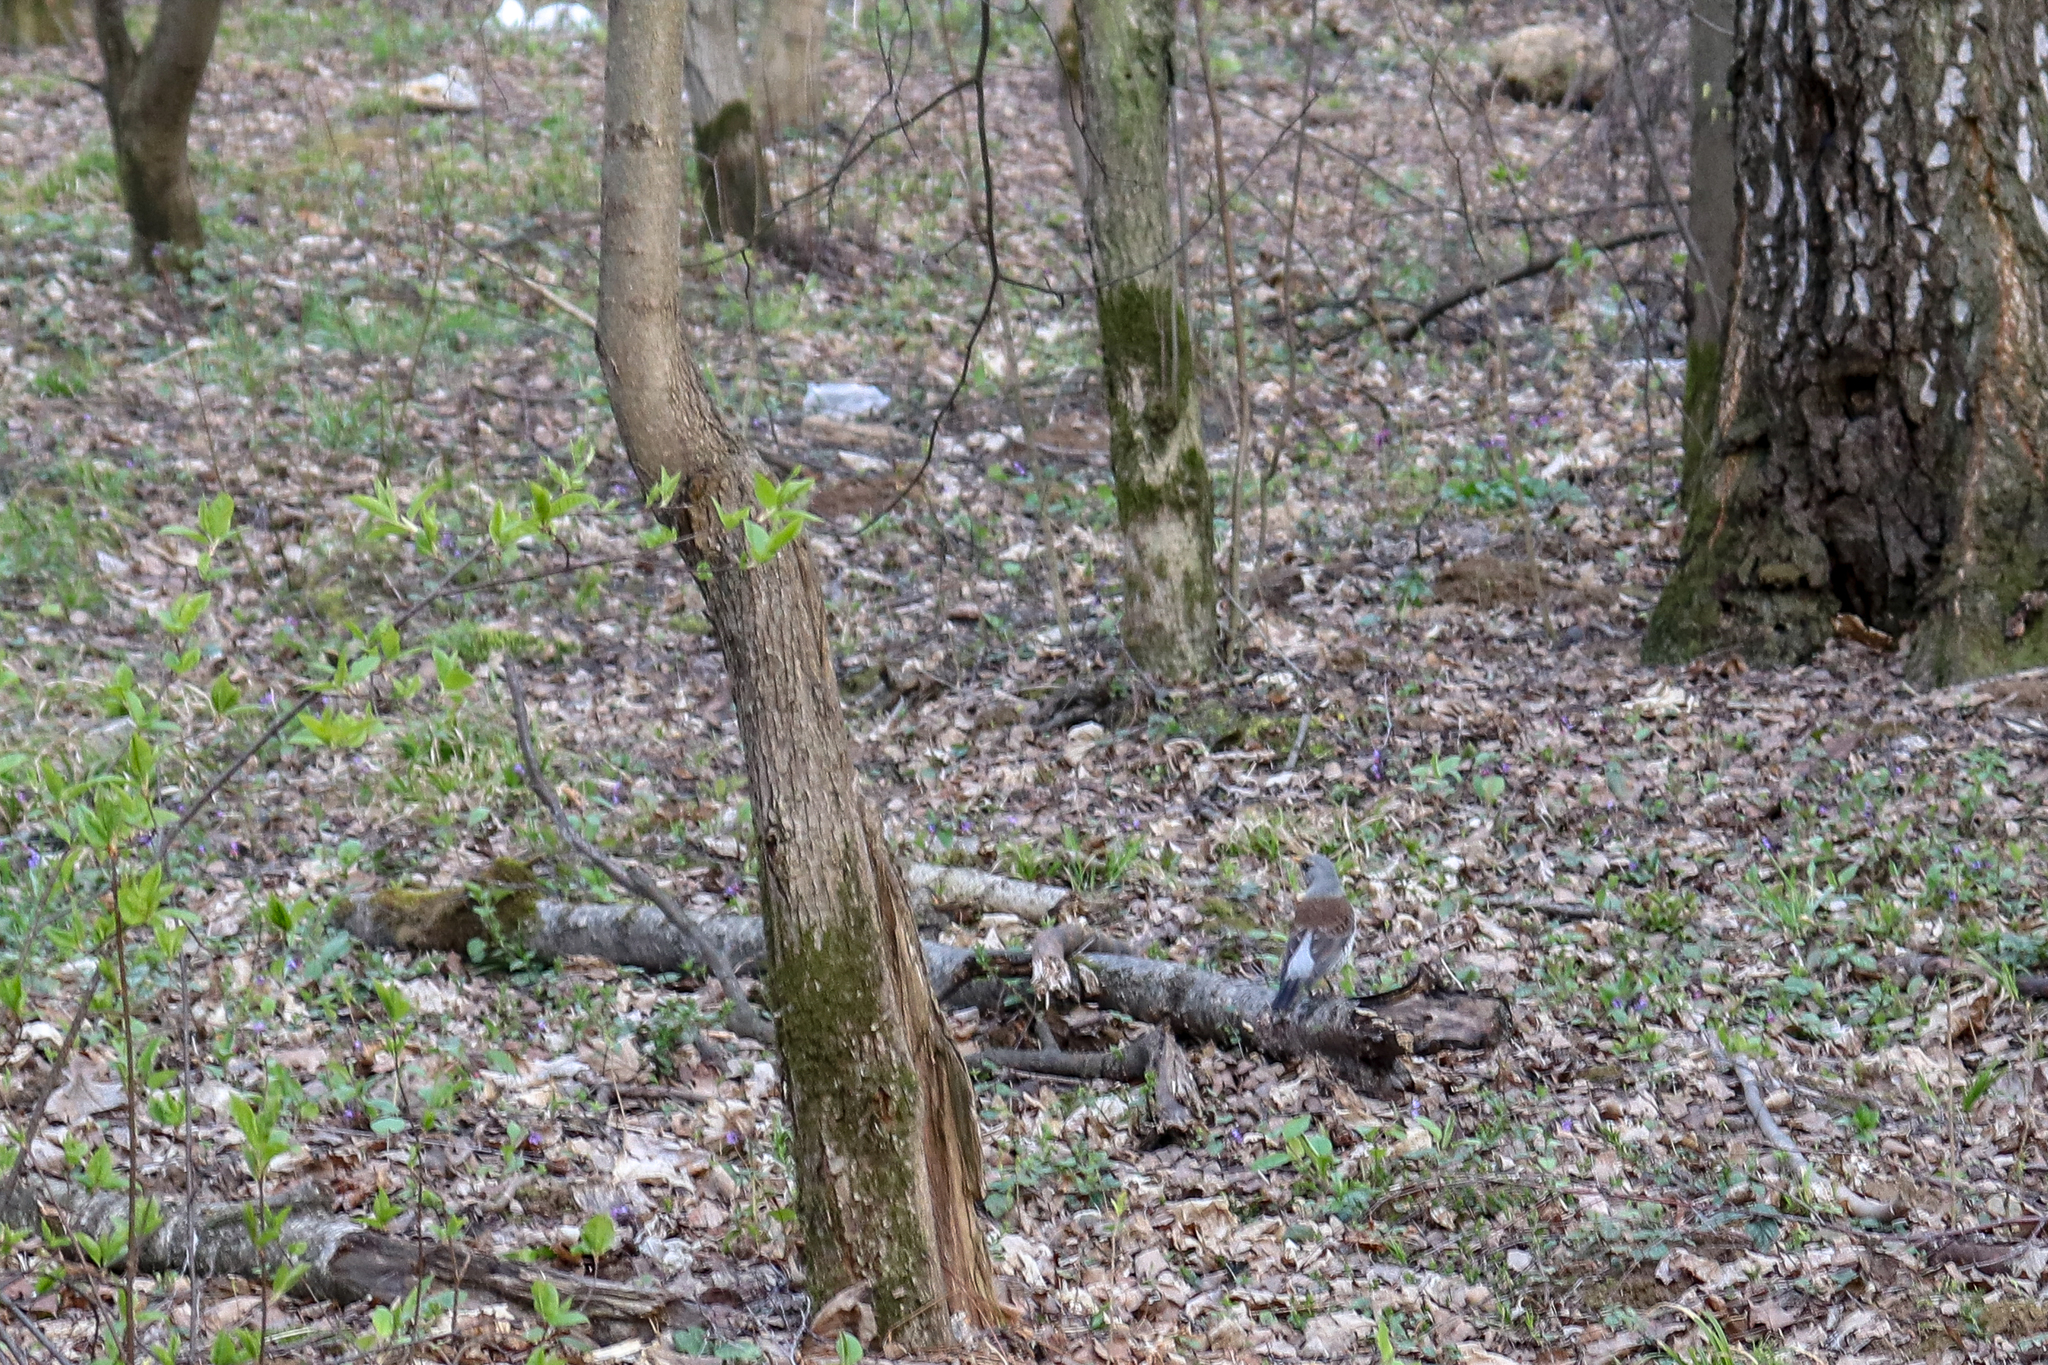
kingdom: Animalia
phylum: Chordata
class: Aves
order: Passeriformes
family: Turdidae
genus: Turdus
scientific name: Turdus pilaris
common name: Fieldfare
